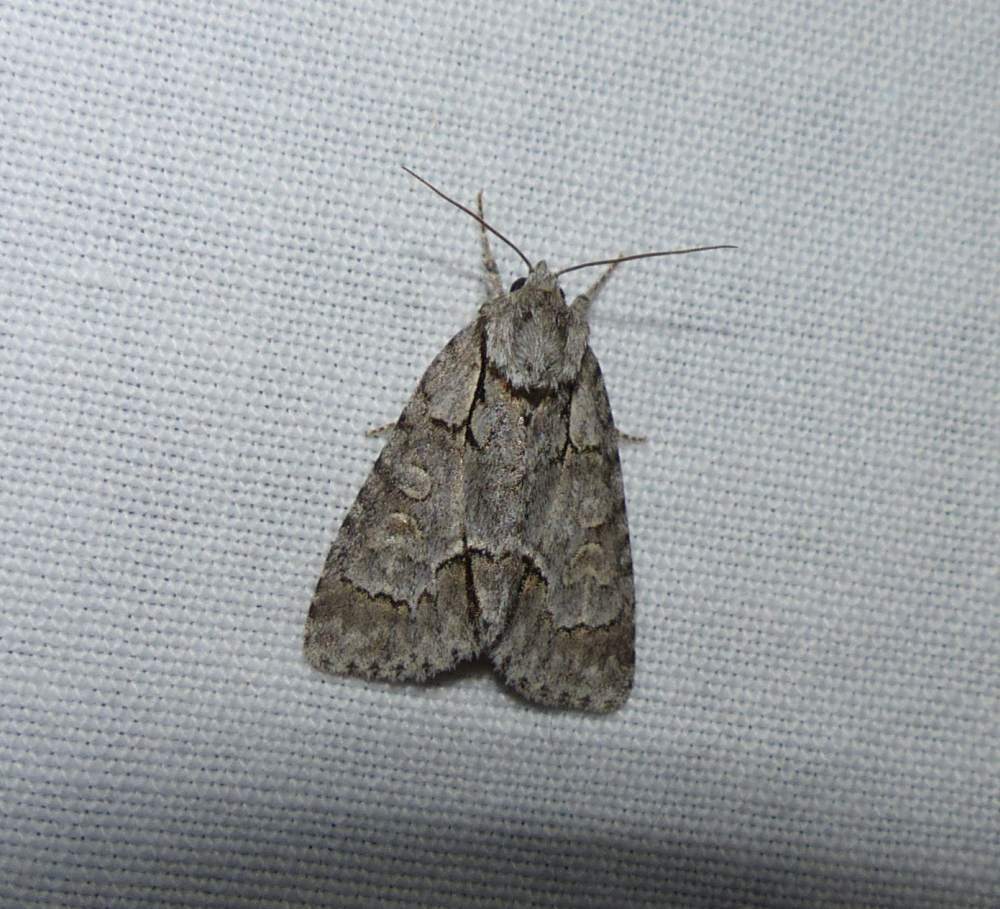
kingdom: Animalia
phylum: Arthropoda
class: Insecta
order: Lepidoptera
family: Noctuidae
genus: Acronicta
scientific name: Acronicta grisea
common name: Gray dagger
